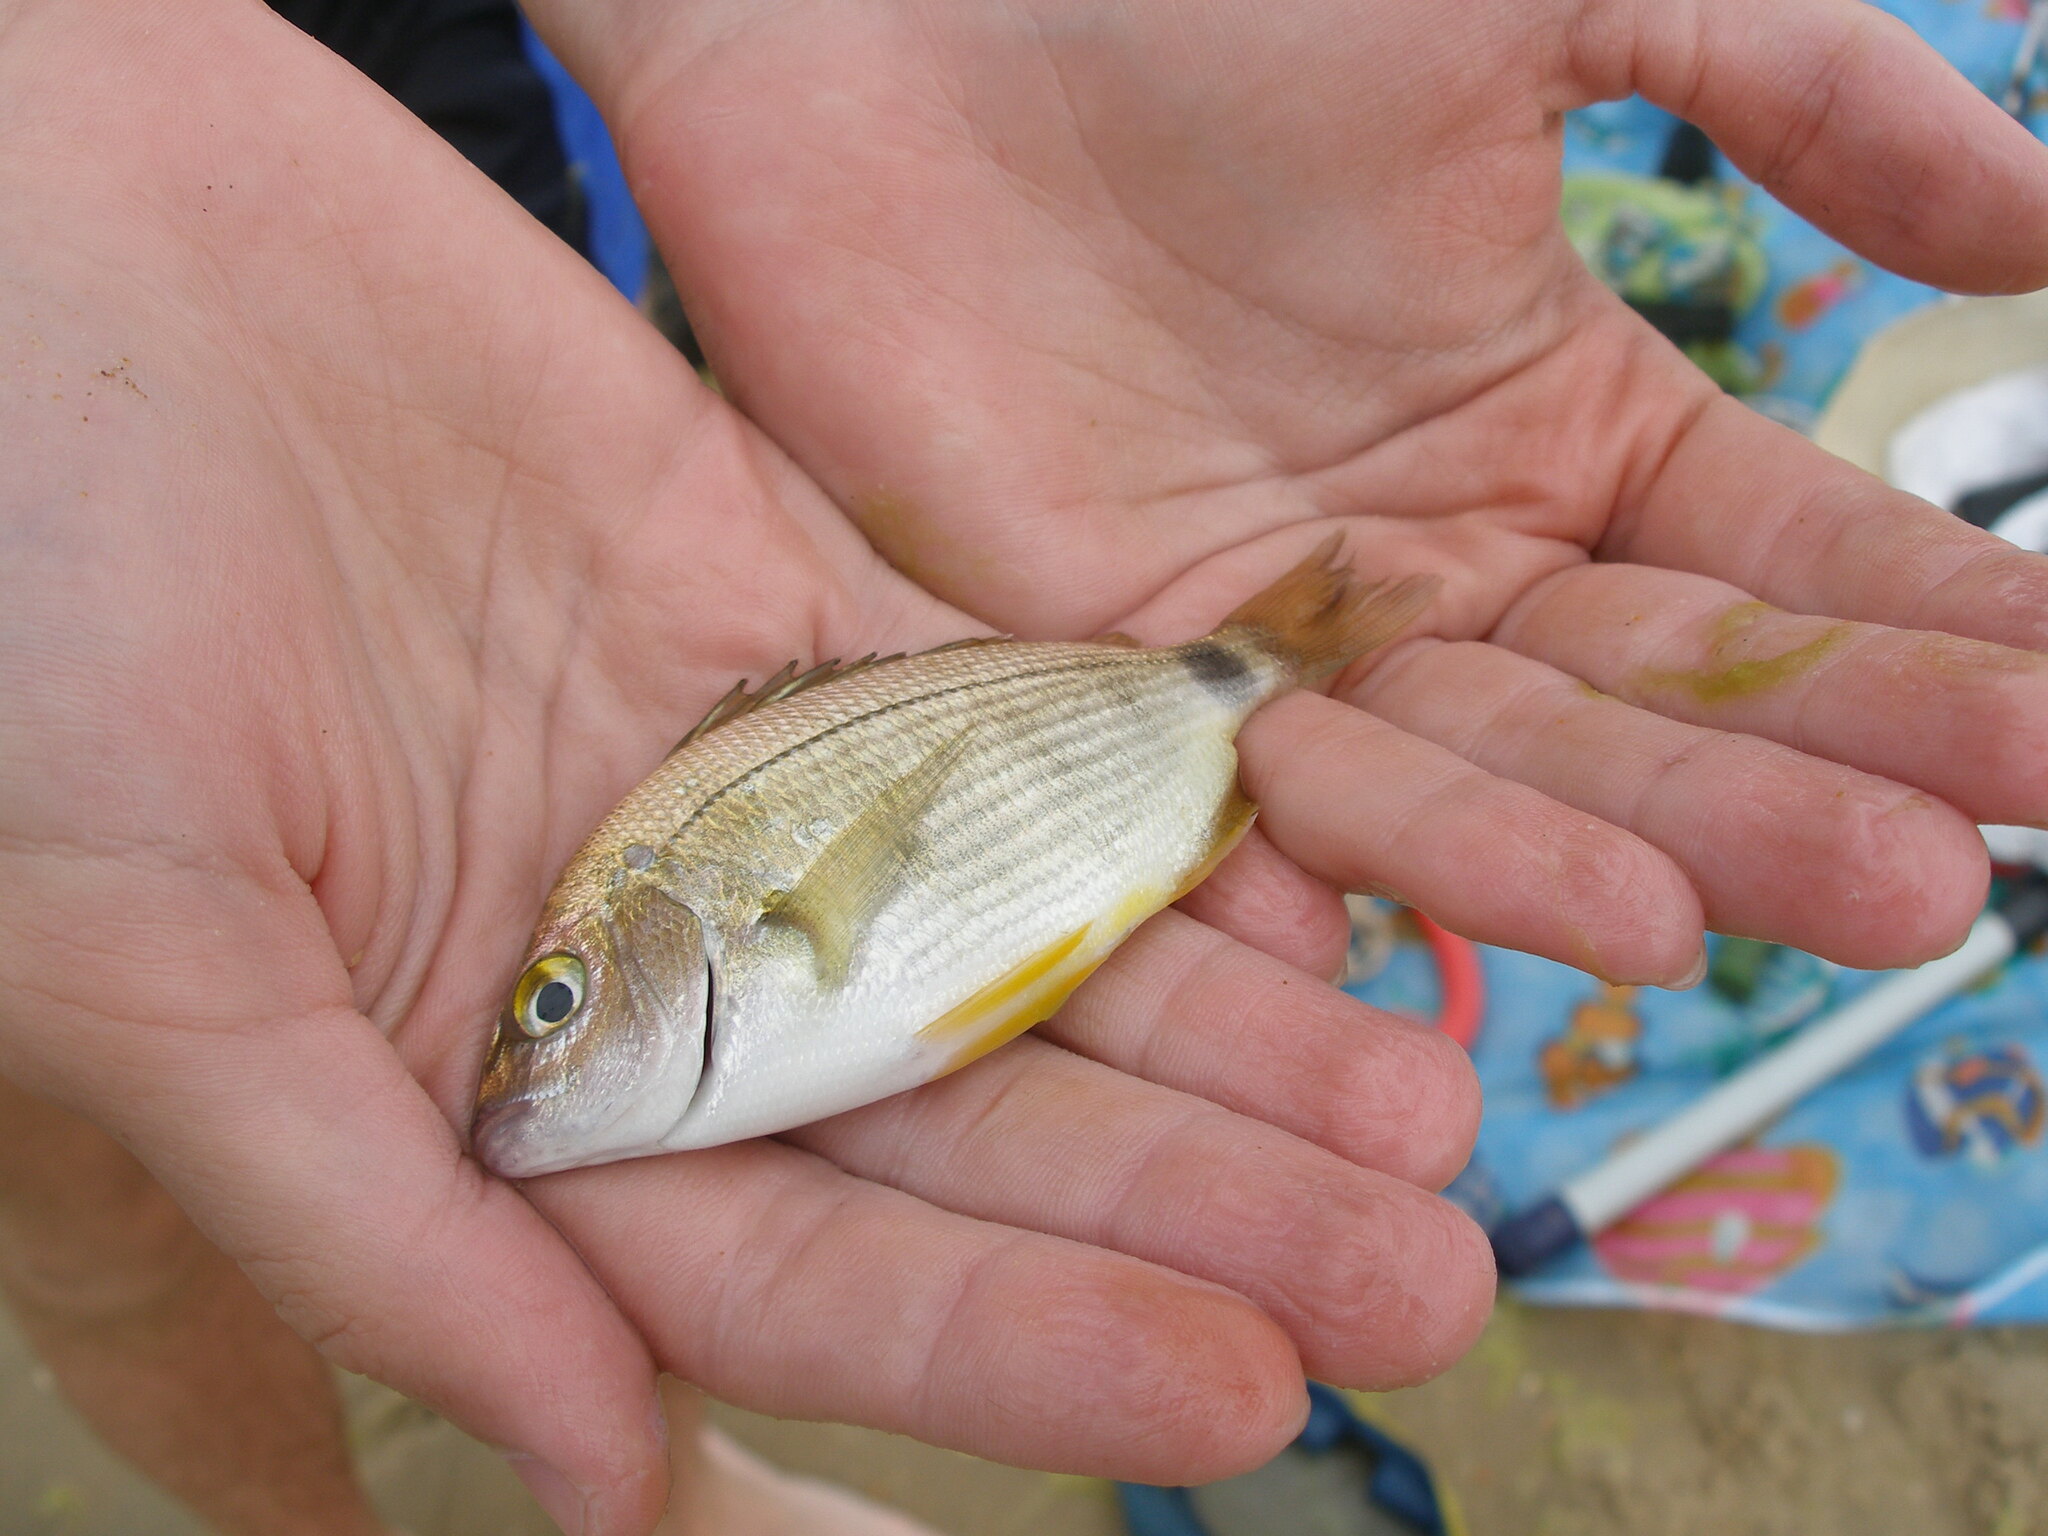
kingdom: Animalia
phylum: Chordata
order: Perciformes
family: Sparidae
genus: Diplodus
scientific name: Diplodus annularis
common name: Annular seabream
